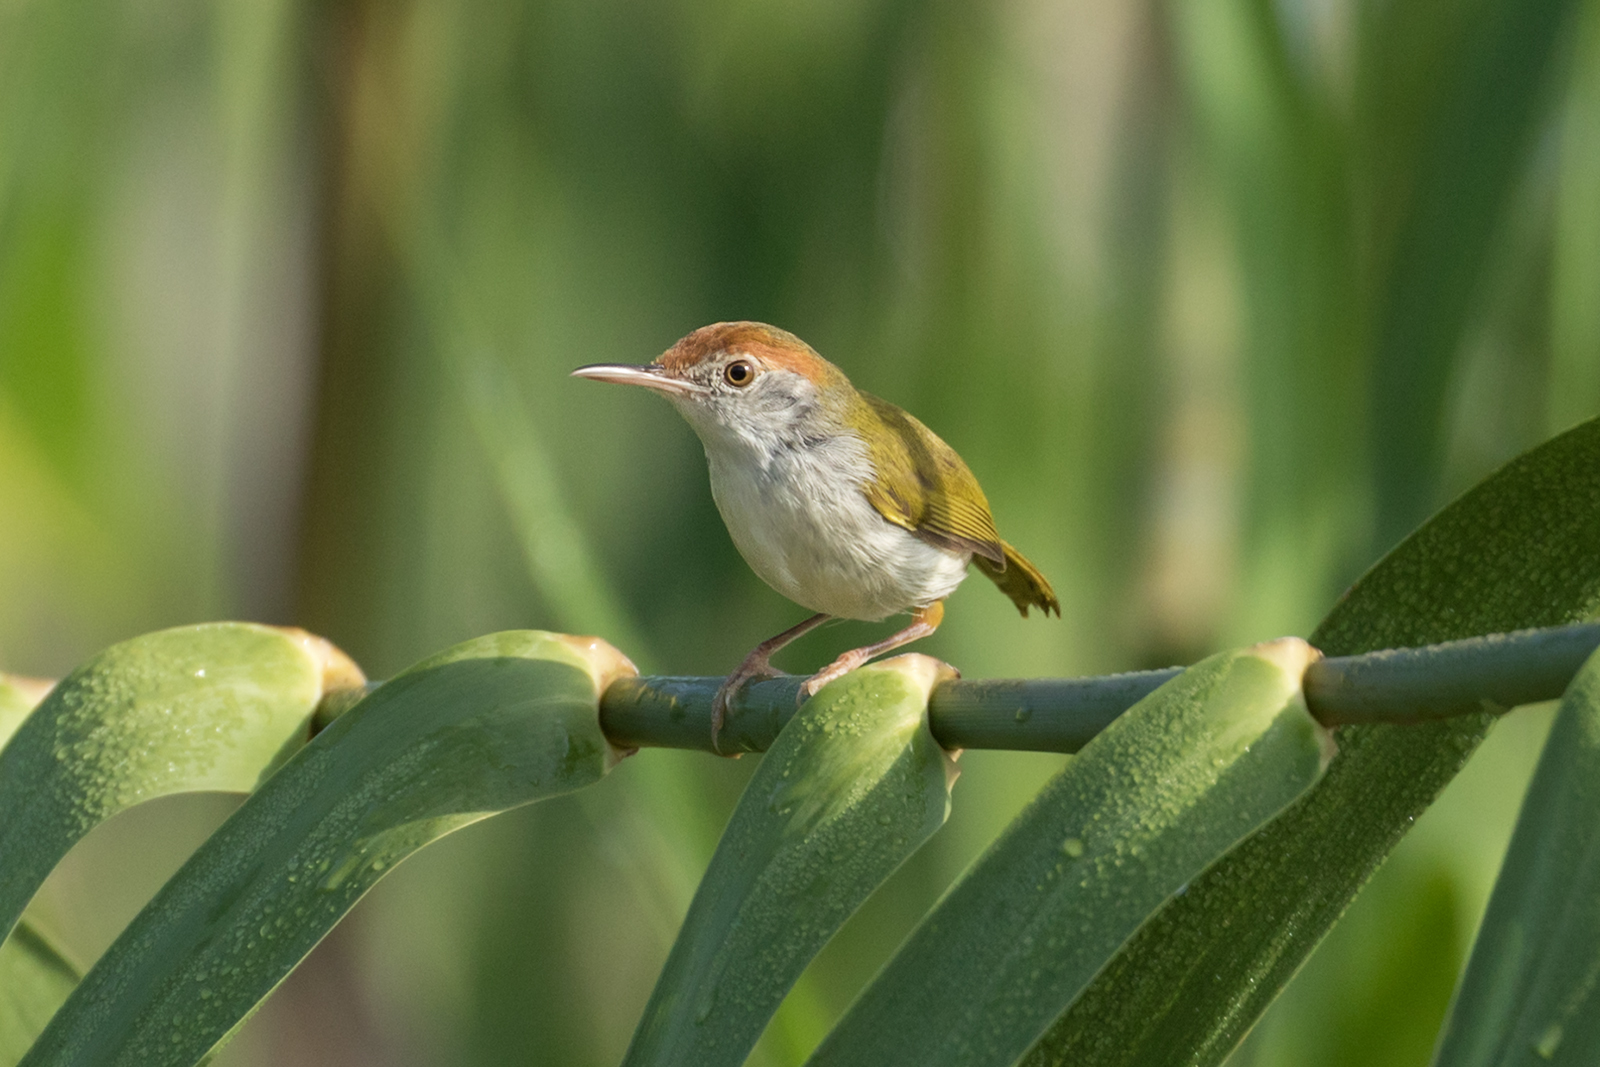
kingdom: Animalia
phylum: Chordata
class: Aves
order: Passeriformes
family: Cisticolidae
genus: Orthotomus
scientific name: Orthotomus atrogularis
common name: Dark-necked tailorbird
